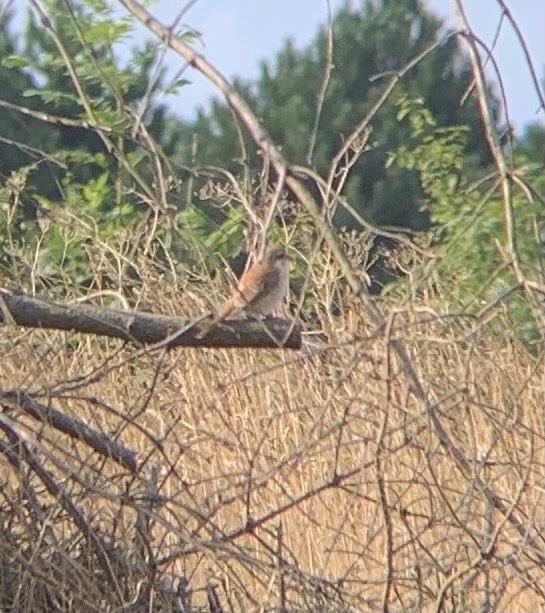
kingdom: Animalia
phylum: Chordata
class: Aves
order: Passeriformes
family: Laniidae
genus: Lanius
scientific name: Lanius collurio
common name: Red-backed shrike
